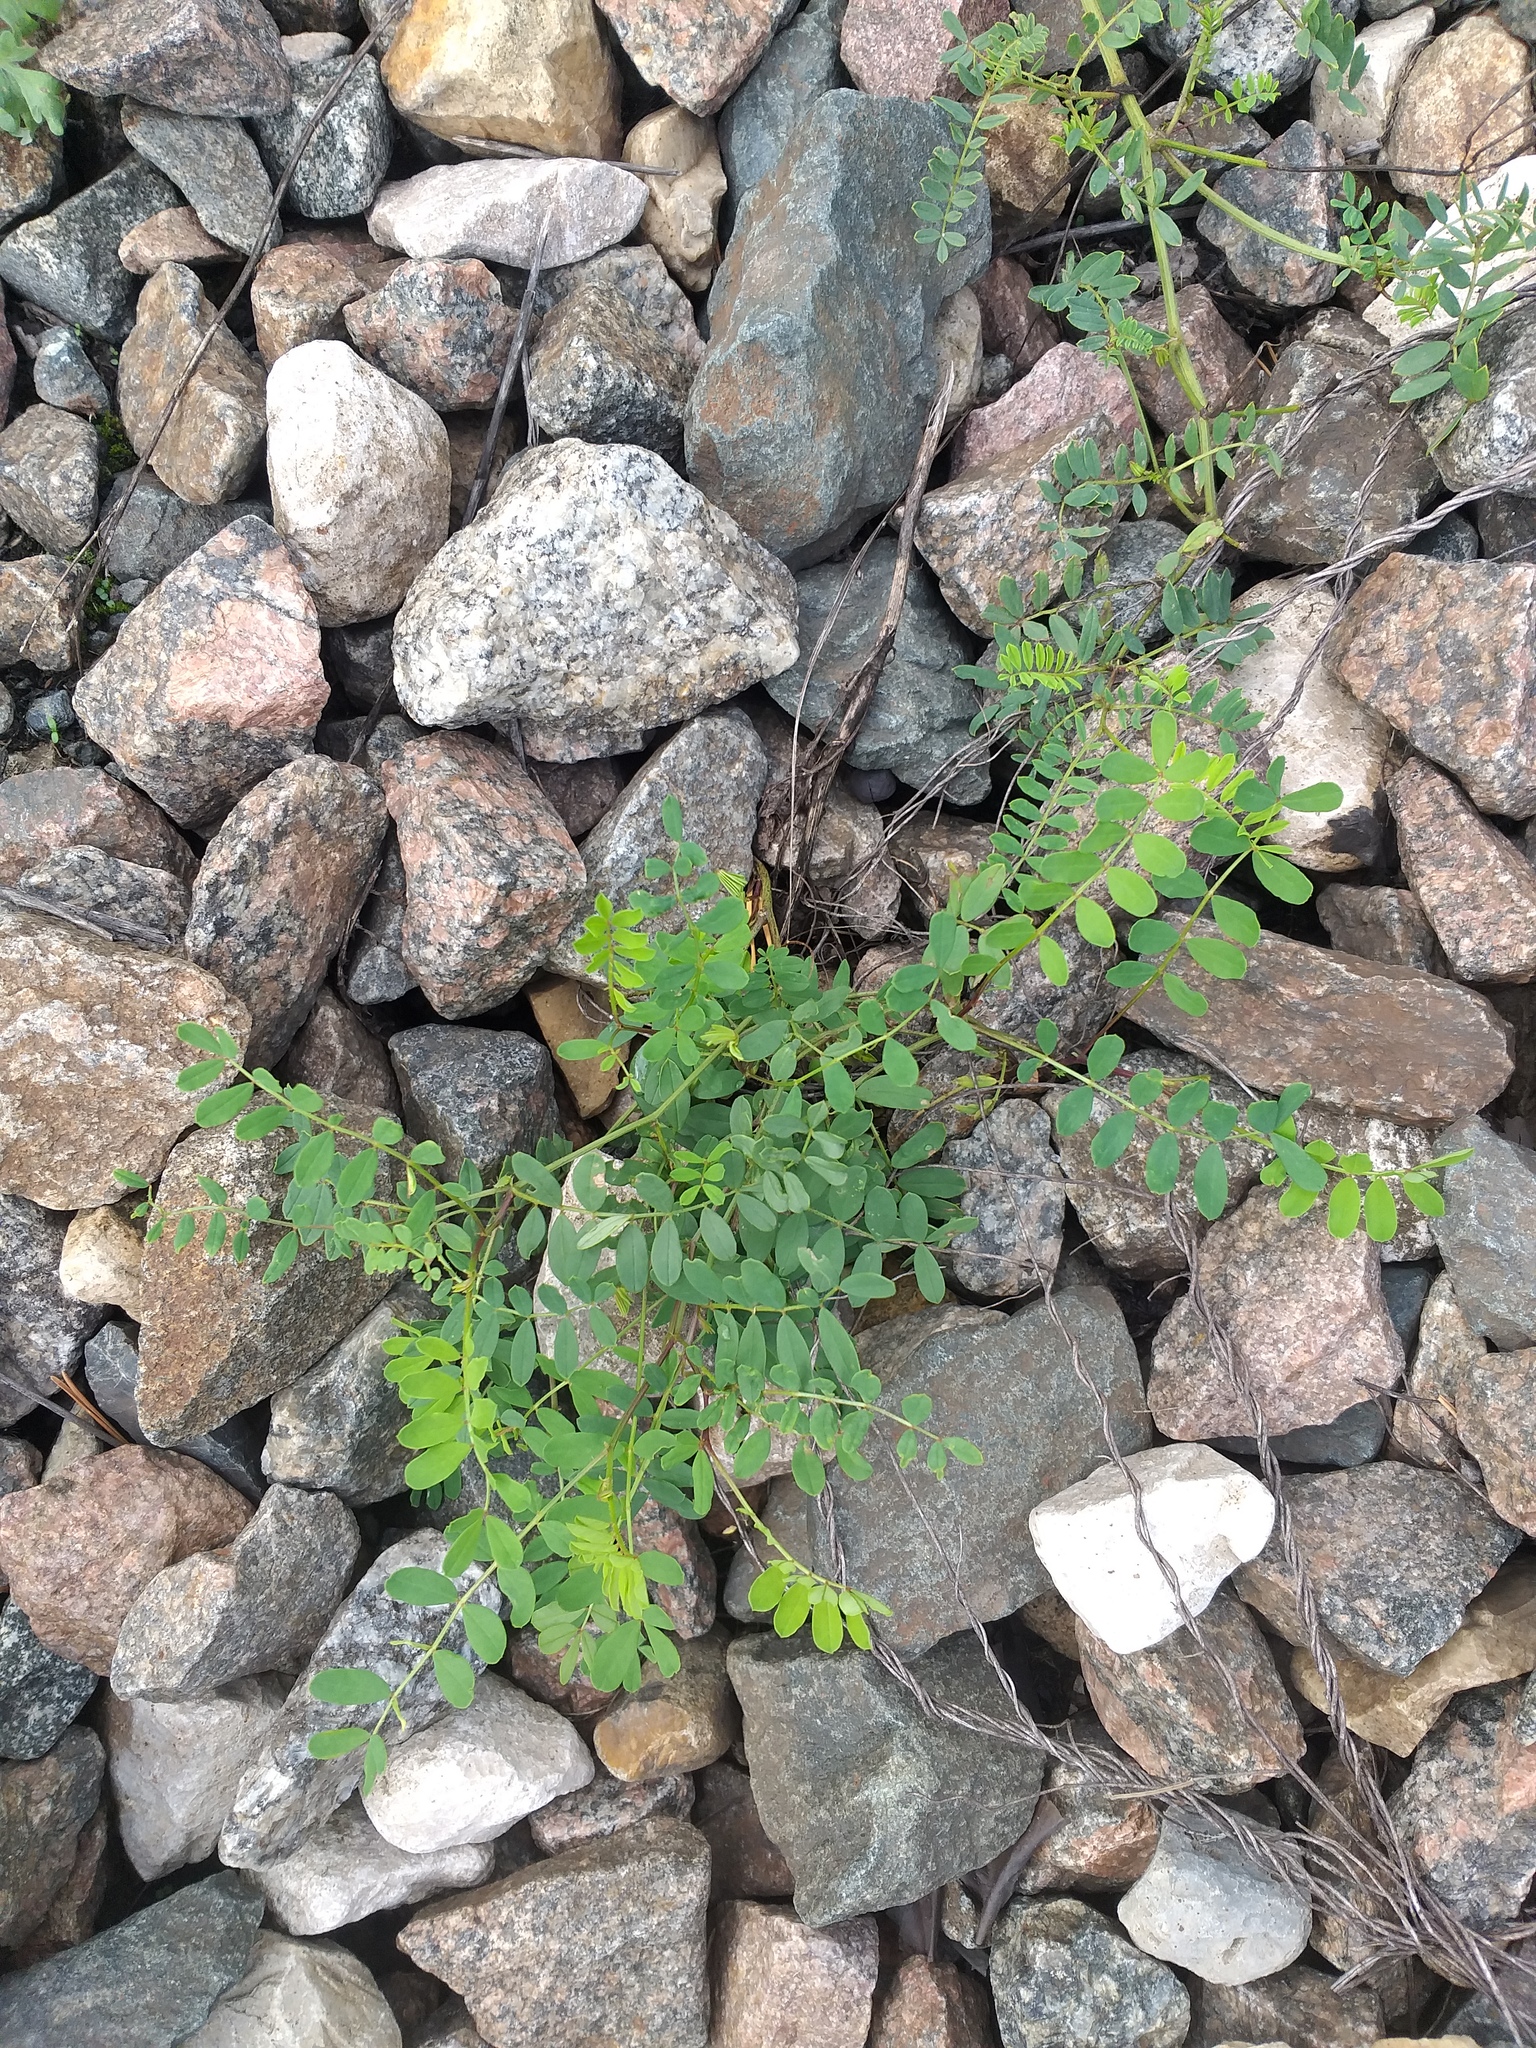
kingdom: Plantae
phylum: Tracheophyta
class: Magnoliopsida
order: Fabales
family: Fabaceae
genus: Coronilla
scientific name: Coronilla varia
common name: Crownvetch
